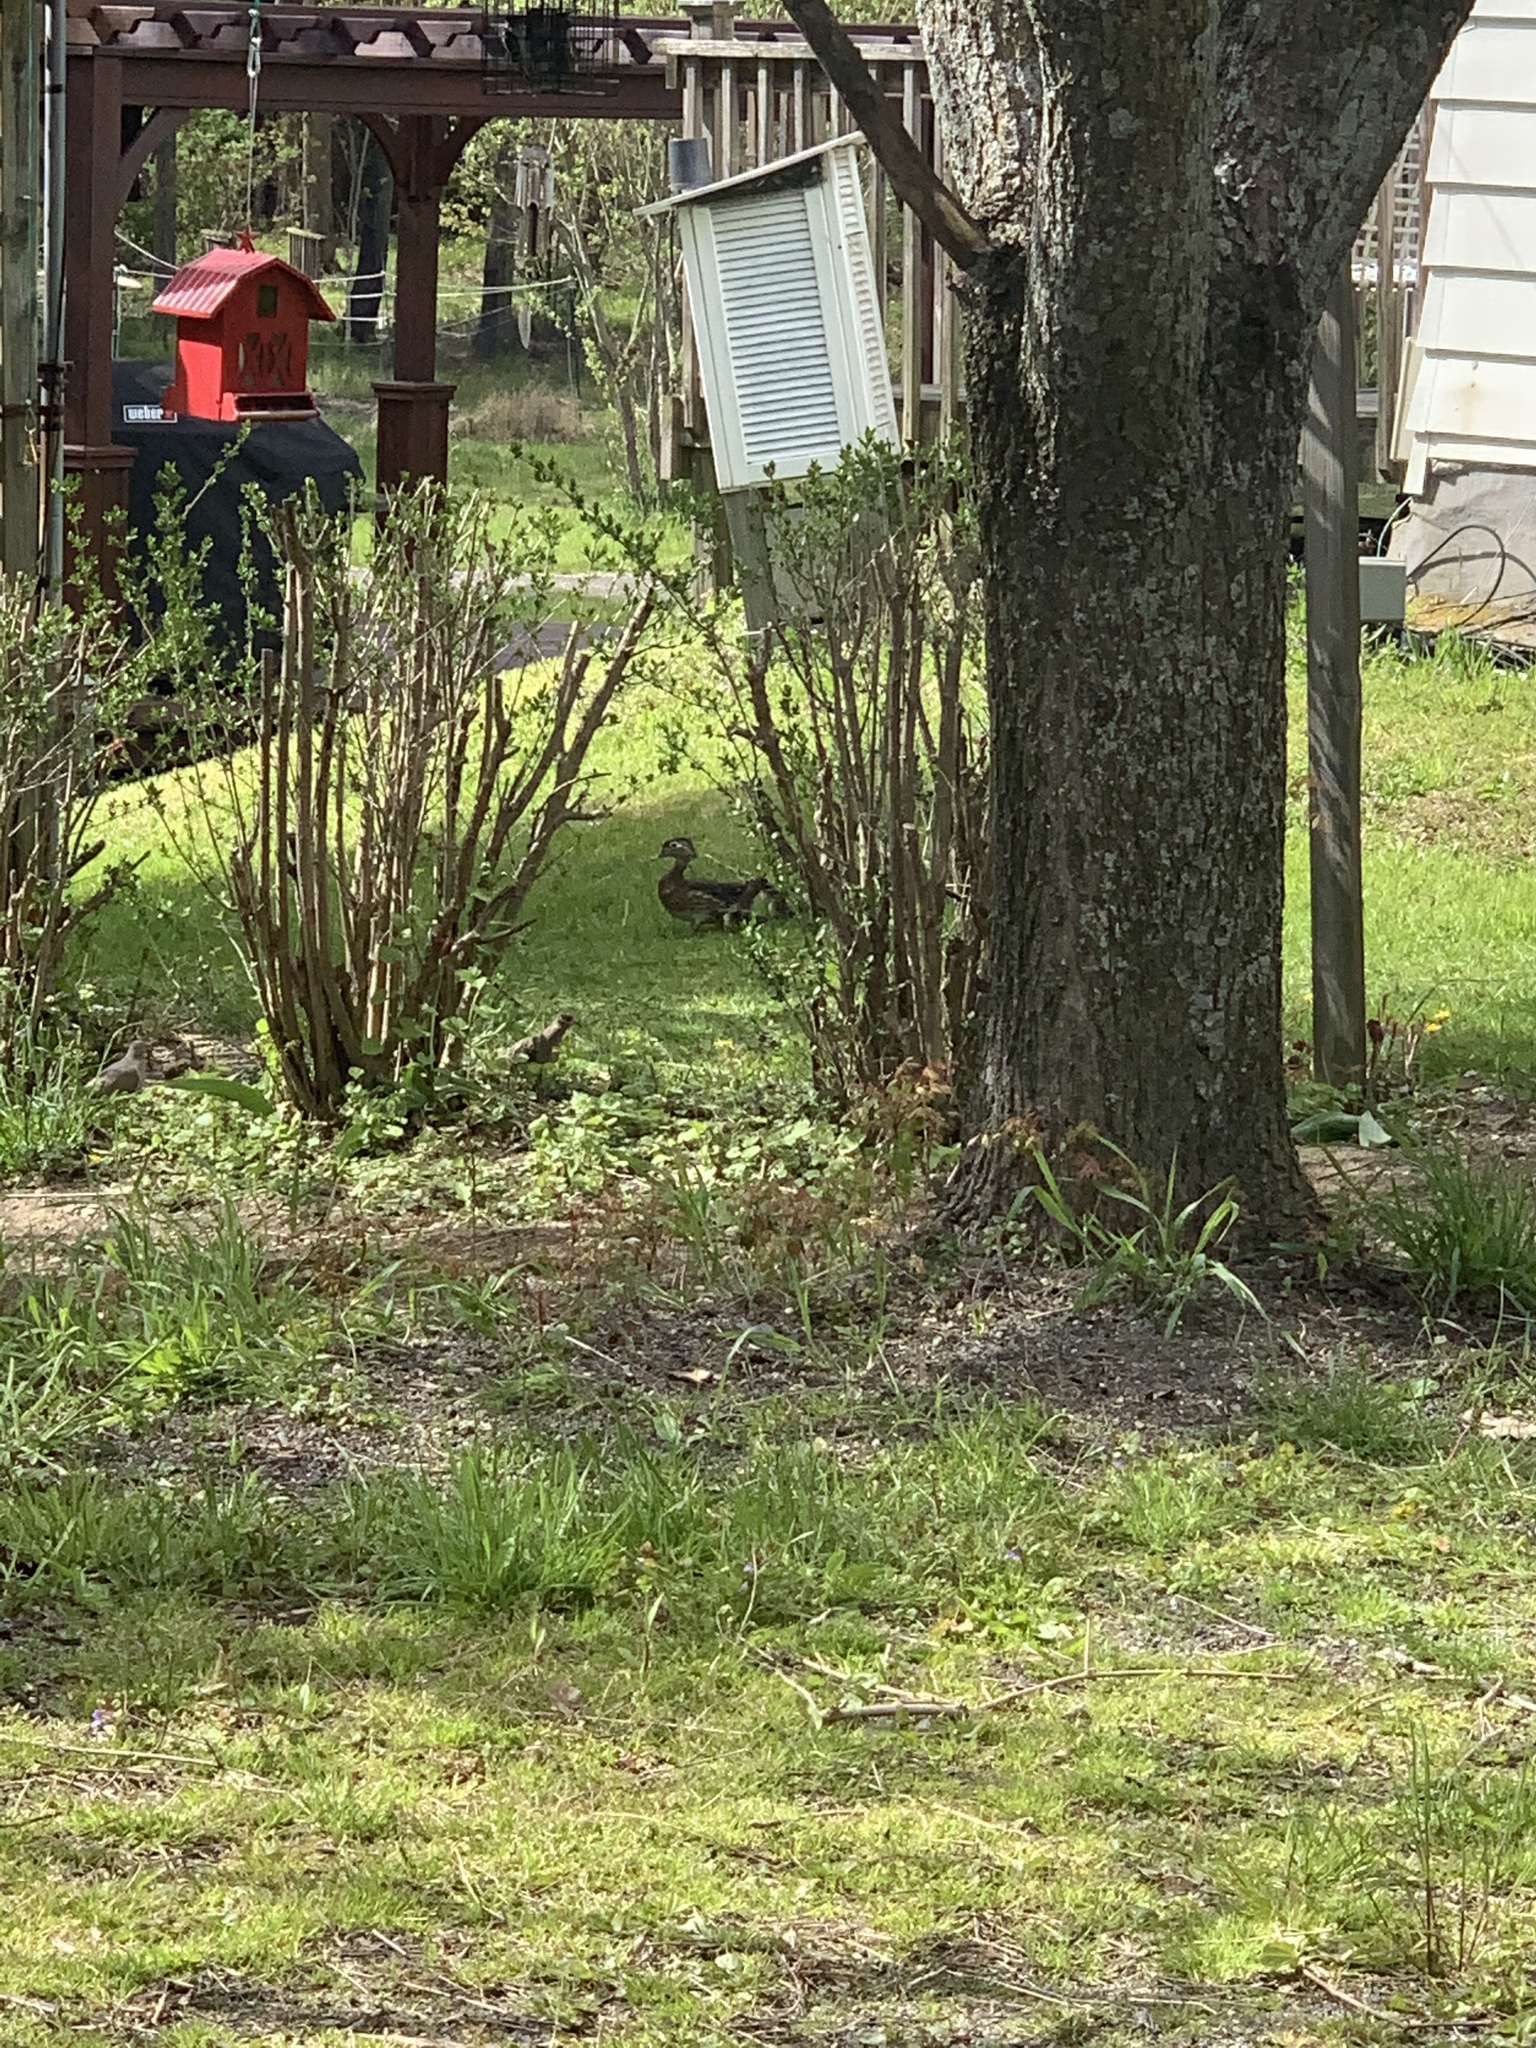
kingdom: Animalia
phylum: Chordata
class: Aves
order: Anseriformes
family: Anatidae
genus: Aix
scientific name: Aix sponsa
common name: Wood duck
